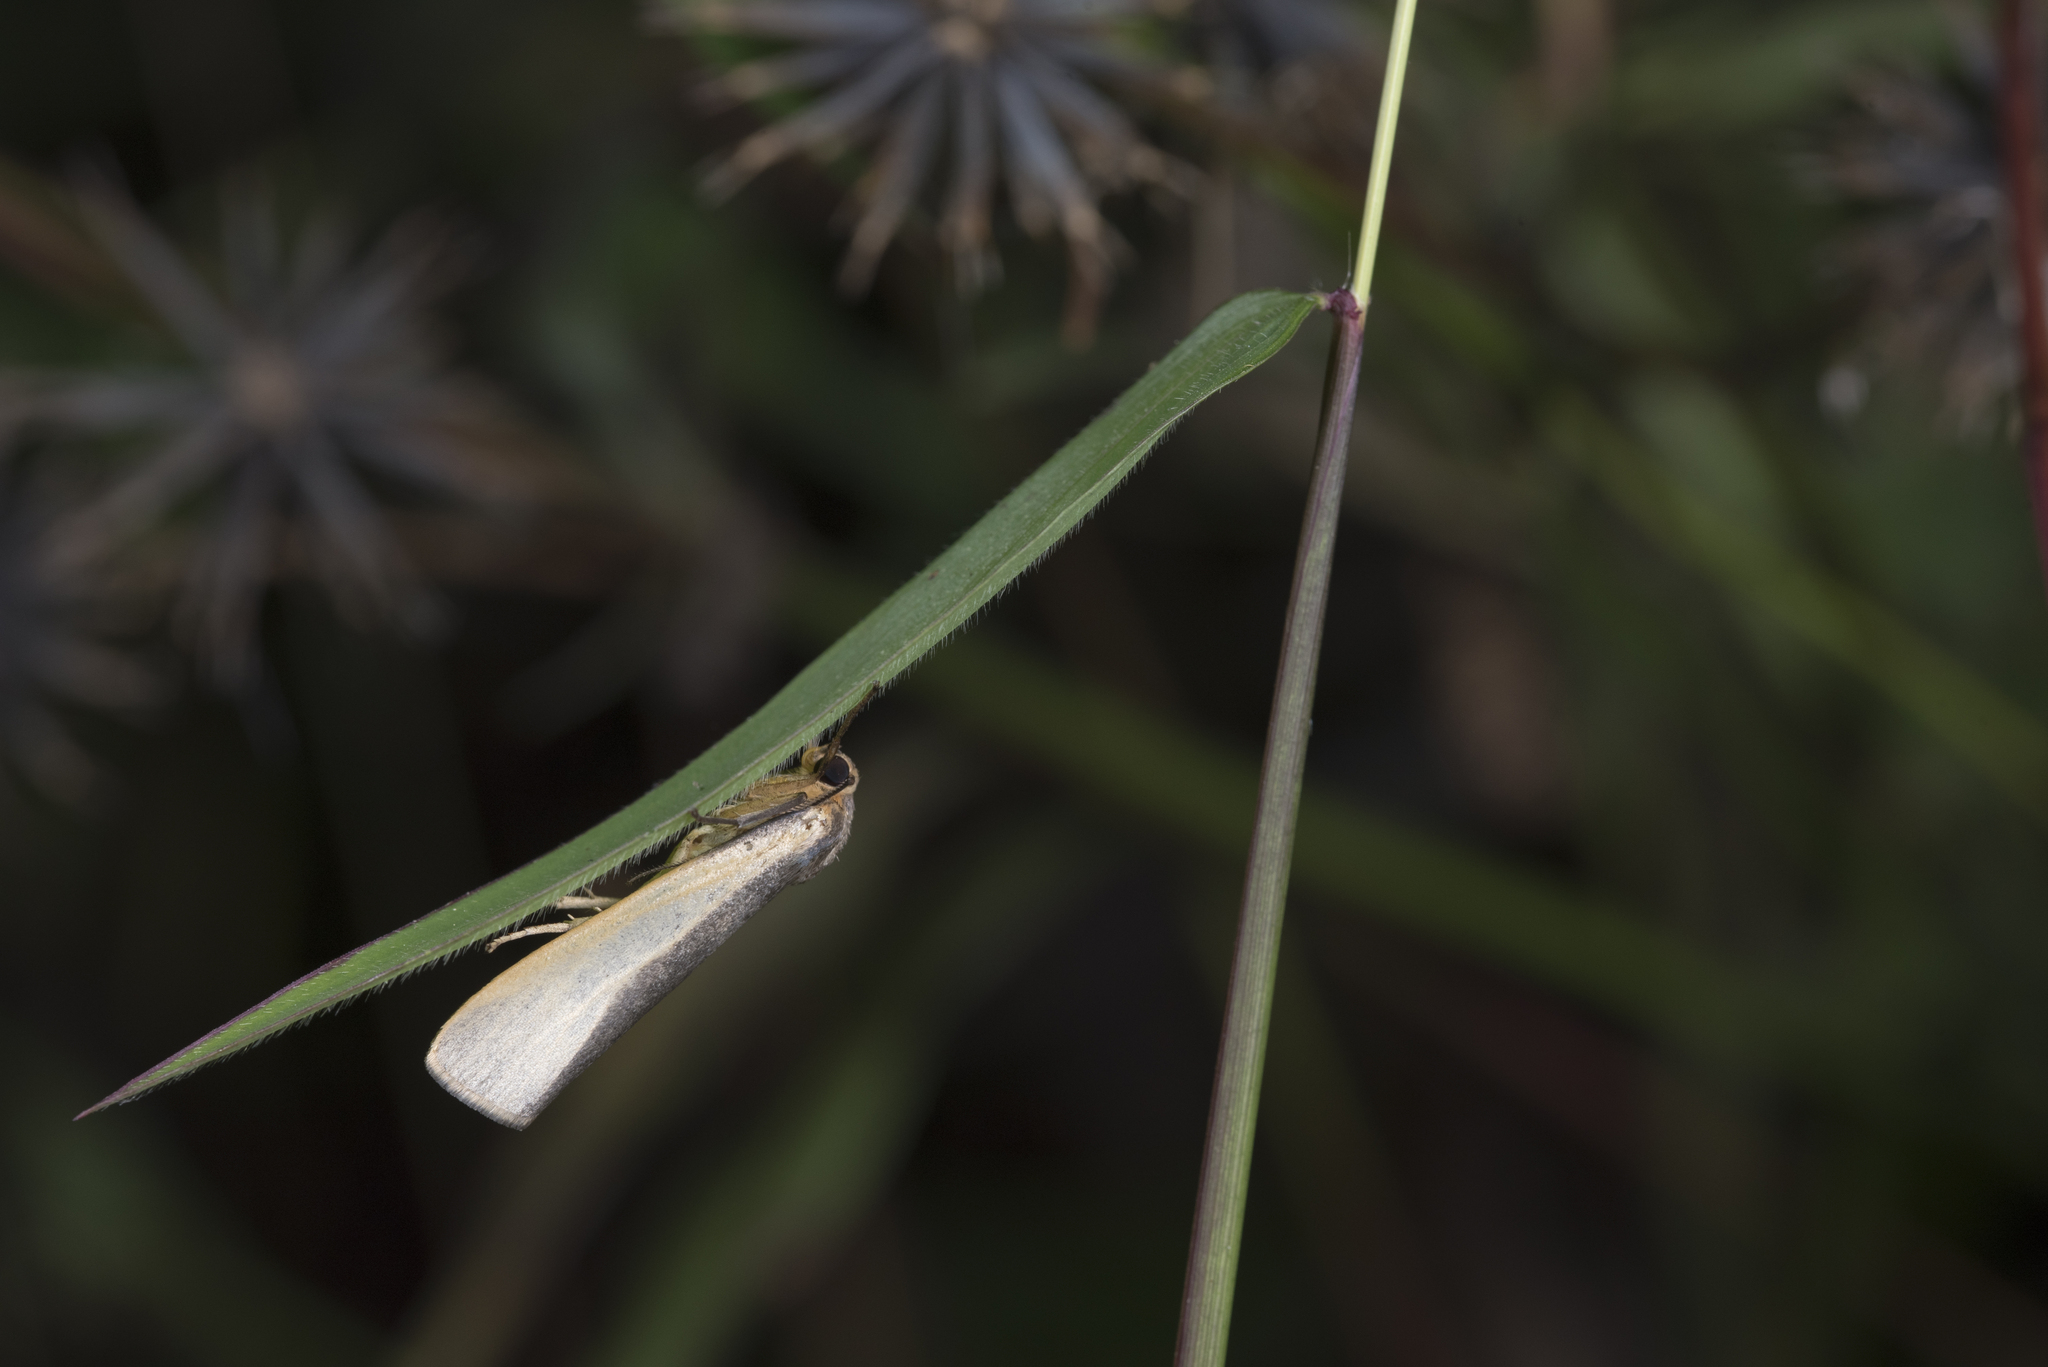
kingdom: Animalia
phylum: Arthropoda
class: Insecta
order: Lepidoptera
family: Erebidae
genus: Hesudra
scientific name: Hesudra divisa
